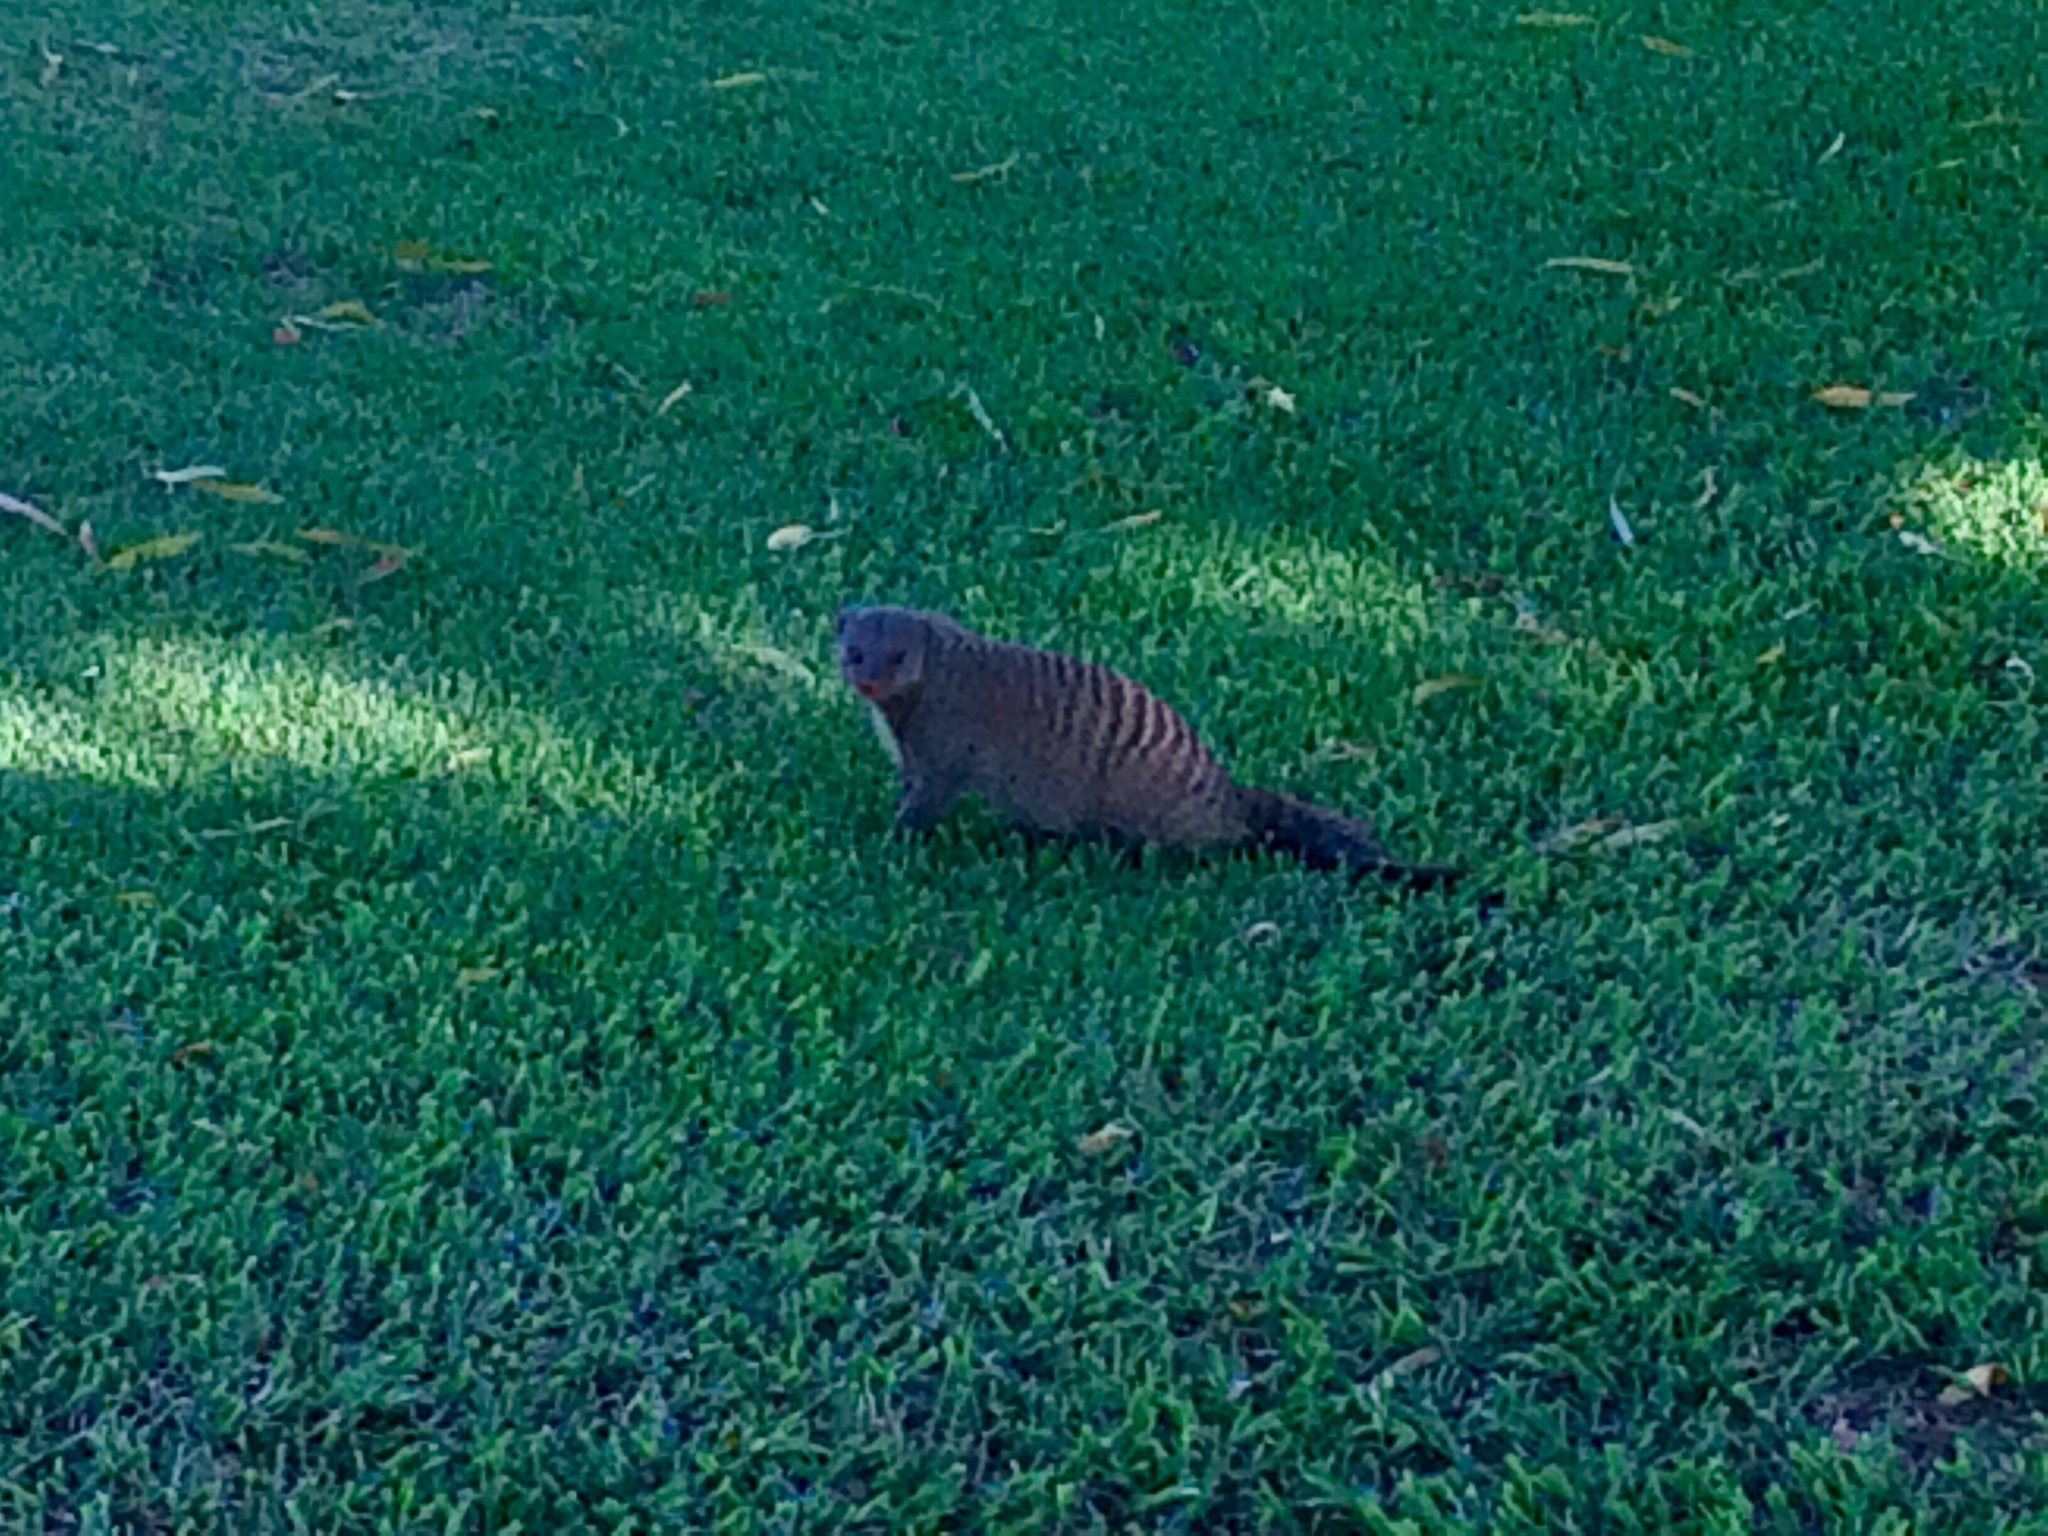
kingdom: Animalia
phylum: Chordata
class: Mammalia
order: Carnivora
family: Herpestidae
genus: Mungos
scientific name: Mungos mungo
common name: Banded mongoose
